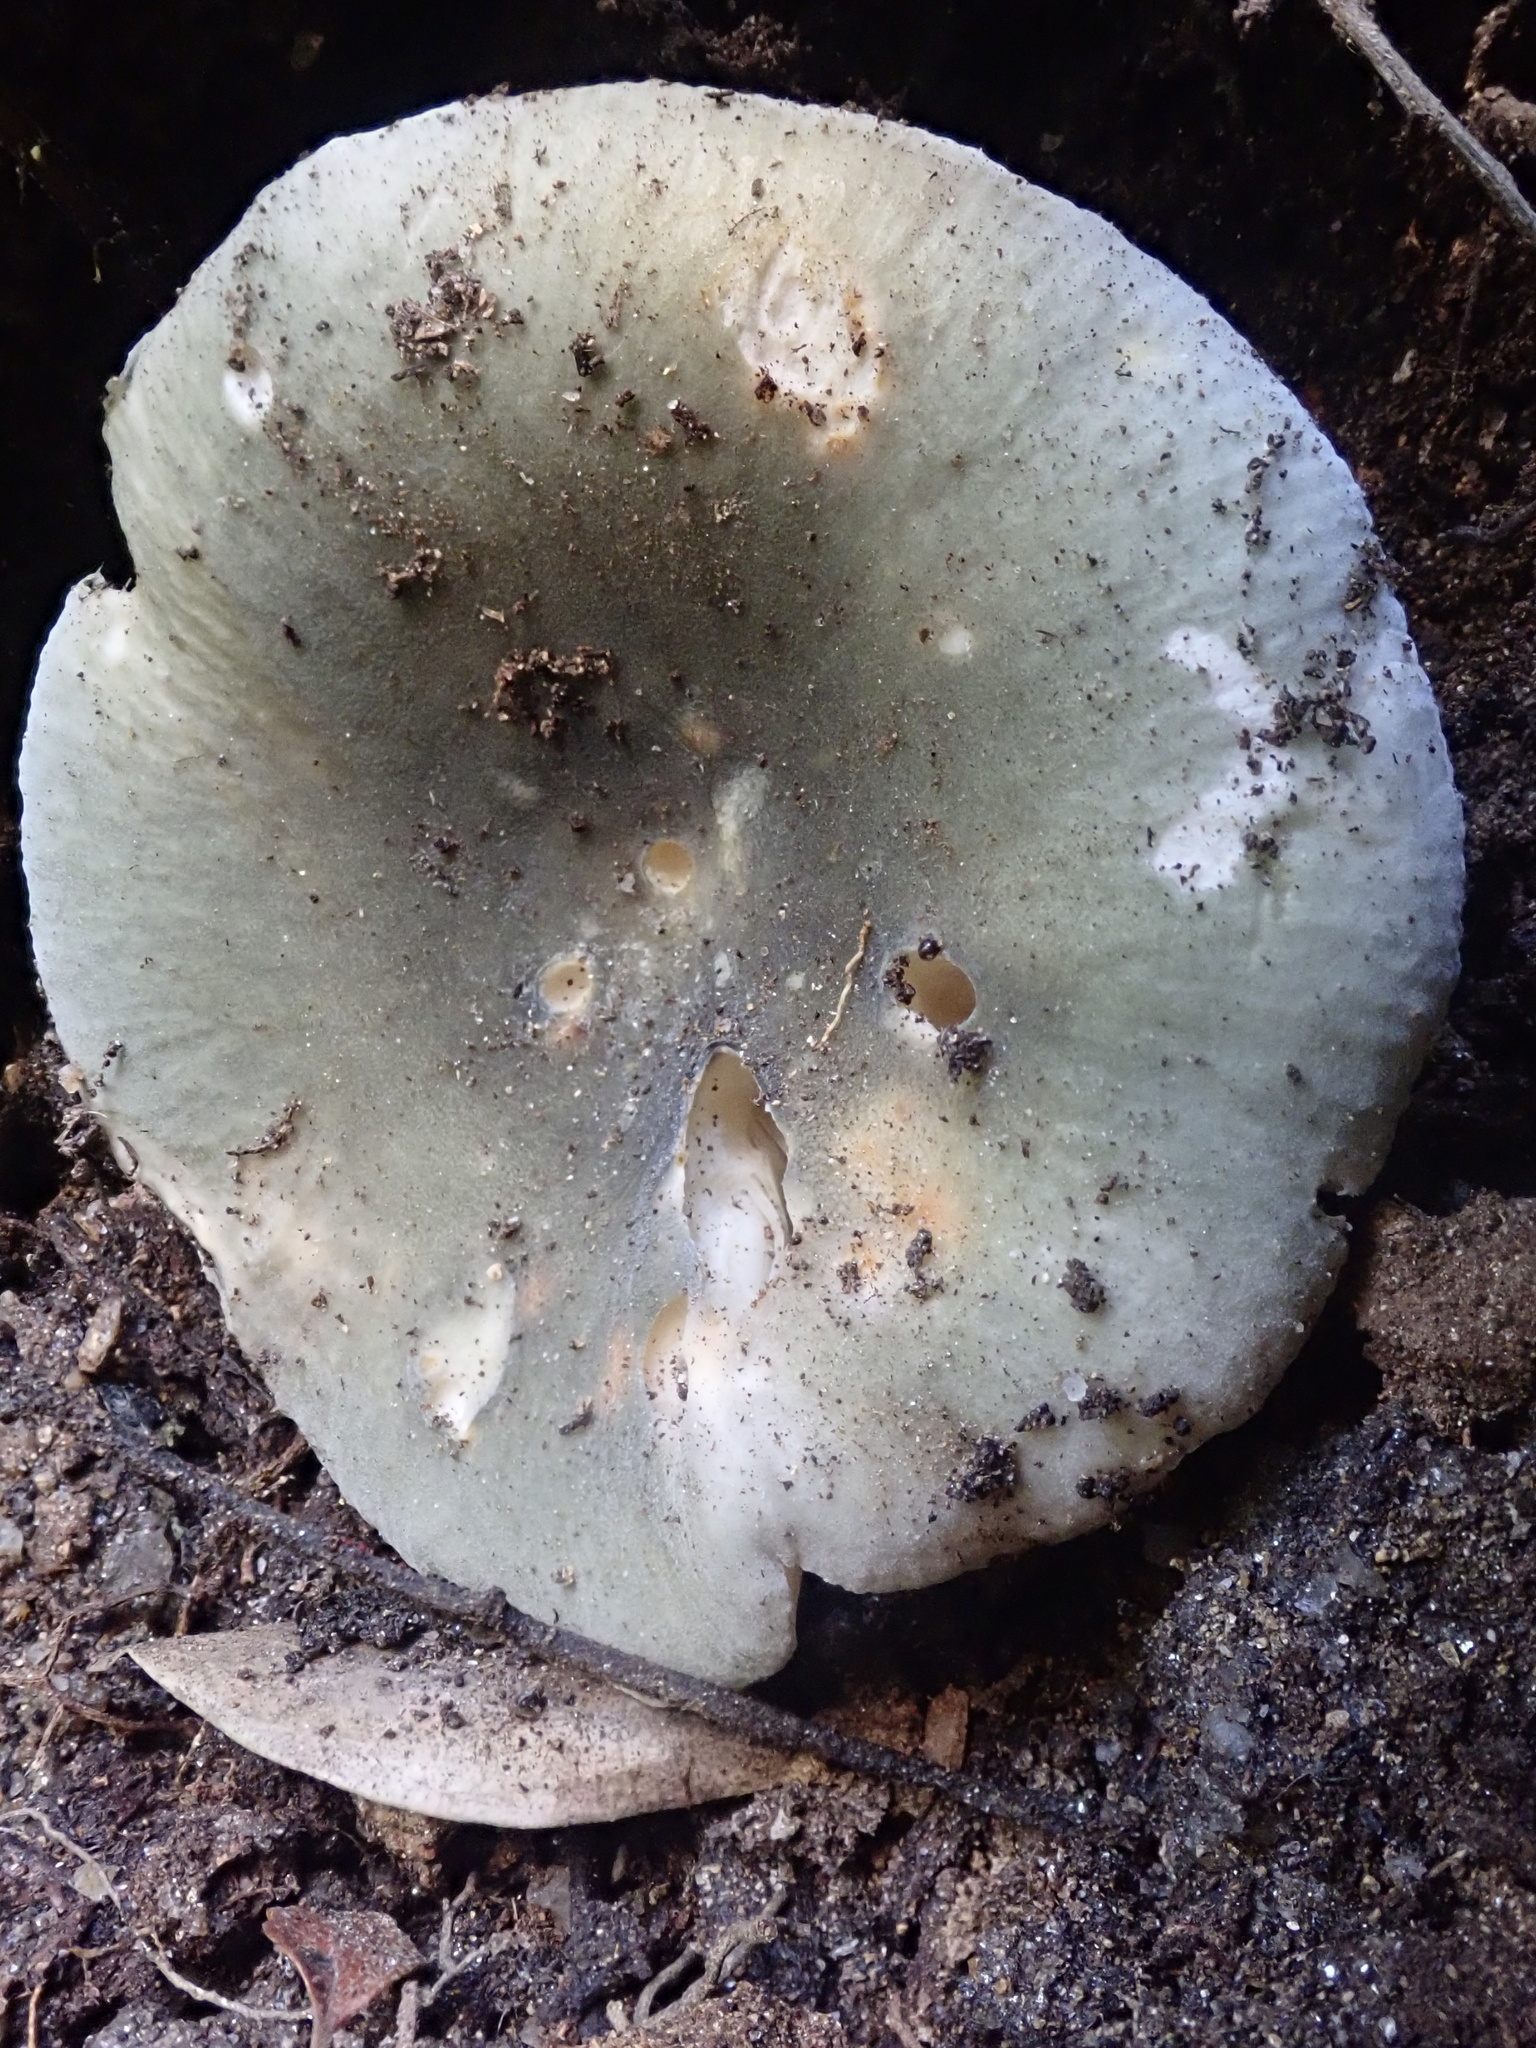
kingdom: Fungi
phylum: Basidiomycota
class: Agaricomycetes
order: Russulales
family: Russulaceae
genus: Russula
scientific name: Russula virescens
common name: Greencracked brittlegill
